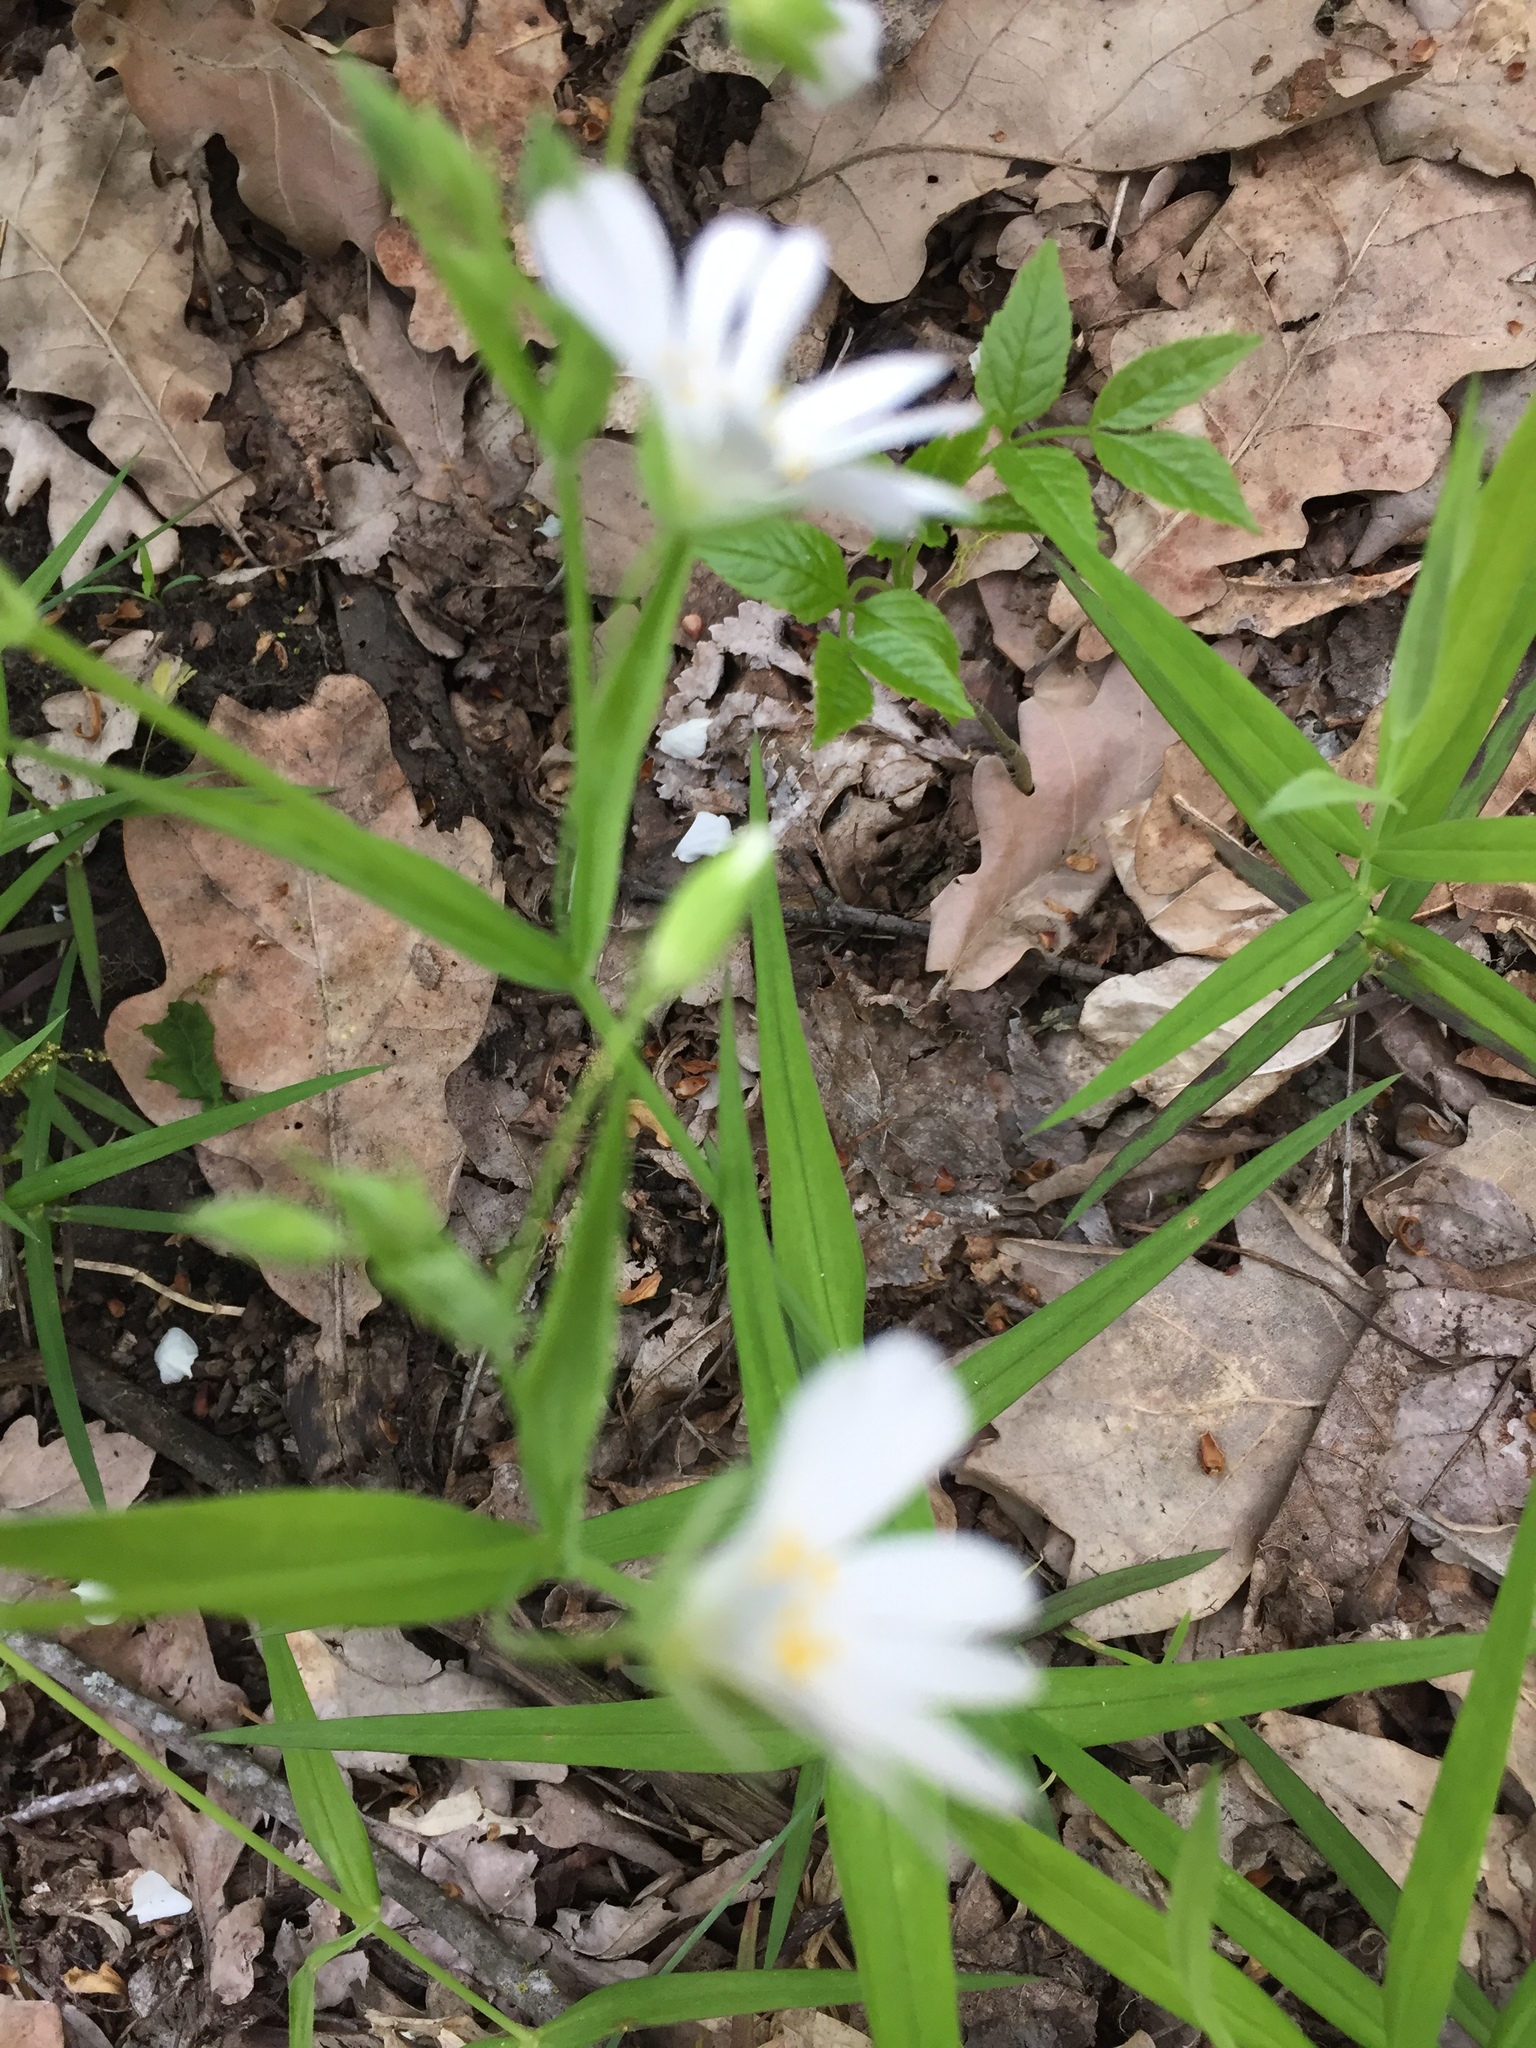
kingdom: Plantae
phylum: Tracheophyta
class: Magnoliopsida
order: Caryophyllales
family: Caryophyllaceae
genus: Rabelera
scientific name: Rabelera holostea
